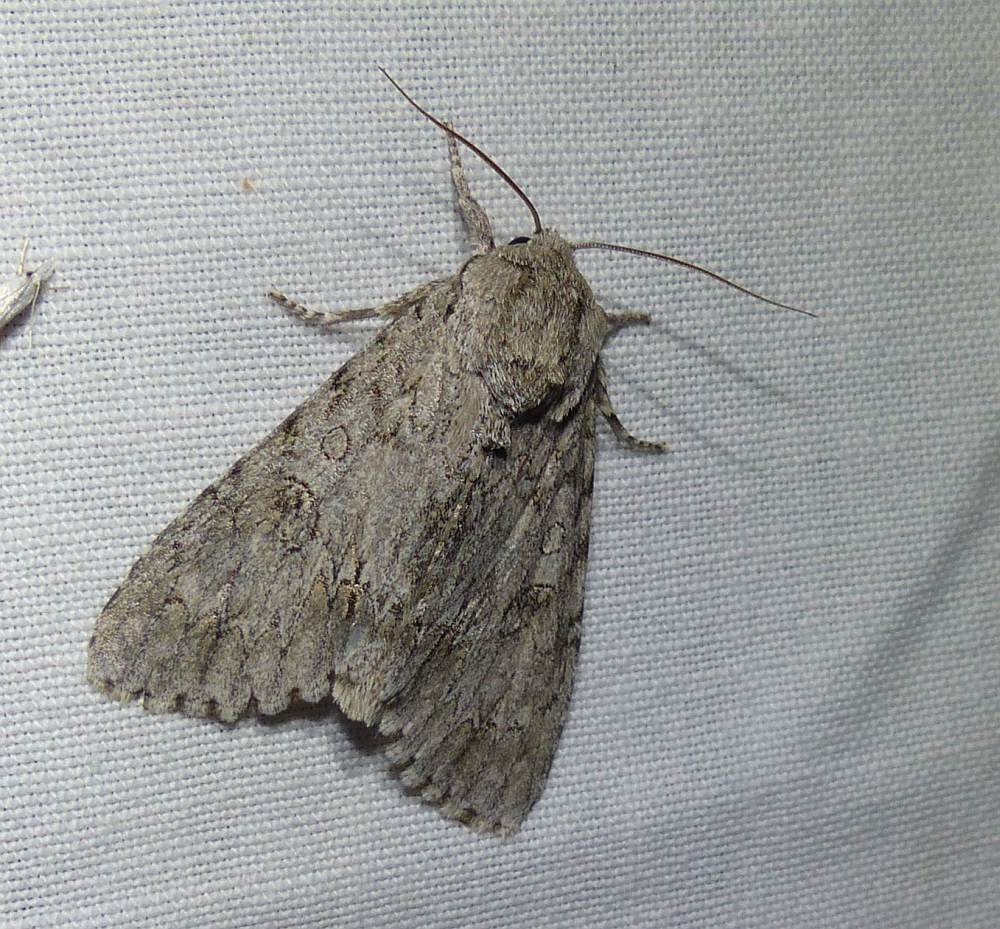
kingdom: Animalia
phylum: Arthropoda
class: Insecta
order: Lepidoptera
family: Noctuidae
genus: Acronicta
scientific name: Acronicta americana
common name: American dagger
